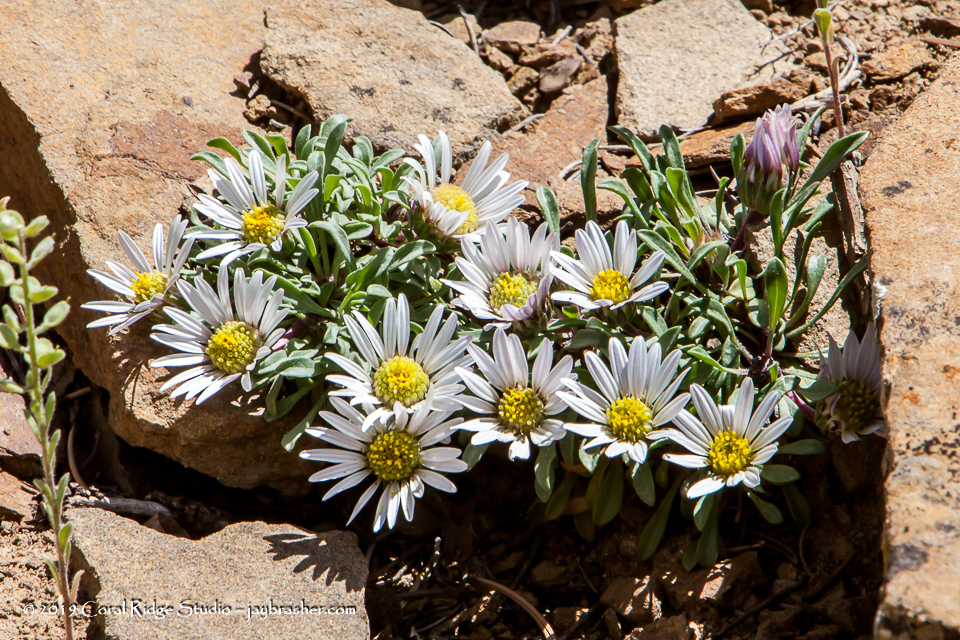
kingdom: Plantae
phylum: Tracheophyta
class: Magnoliopsida
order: Asterales
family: Asteraceae
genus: Townsendia
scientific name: Townsendia exscapa
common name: Dwarf townsendia
